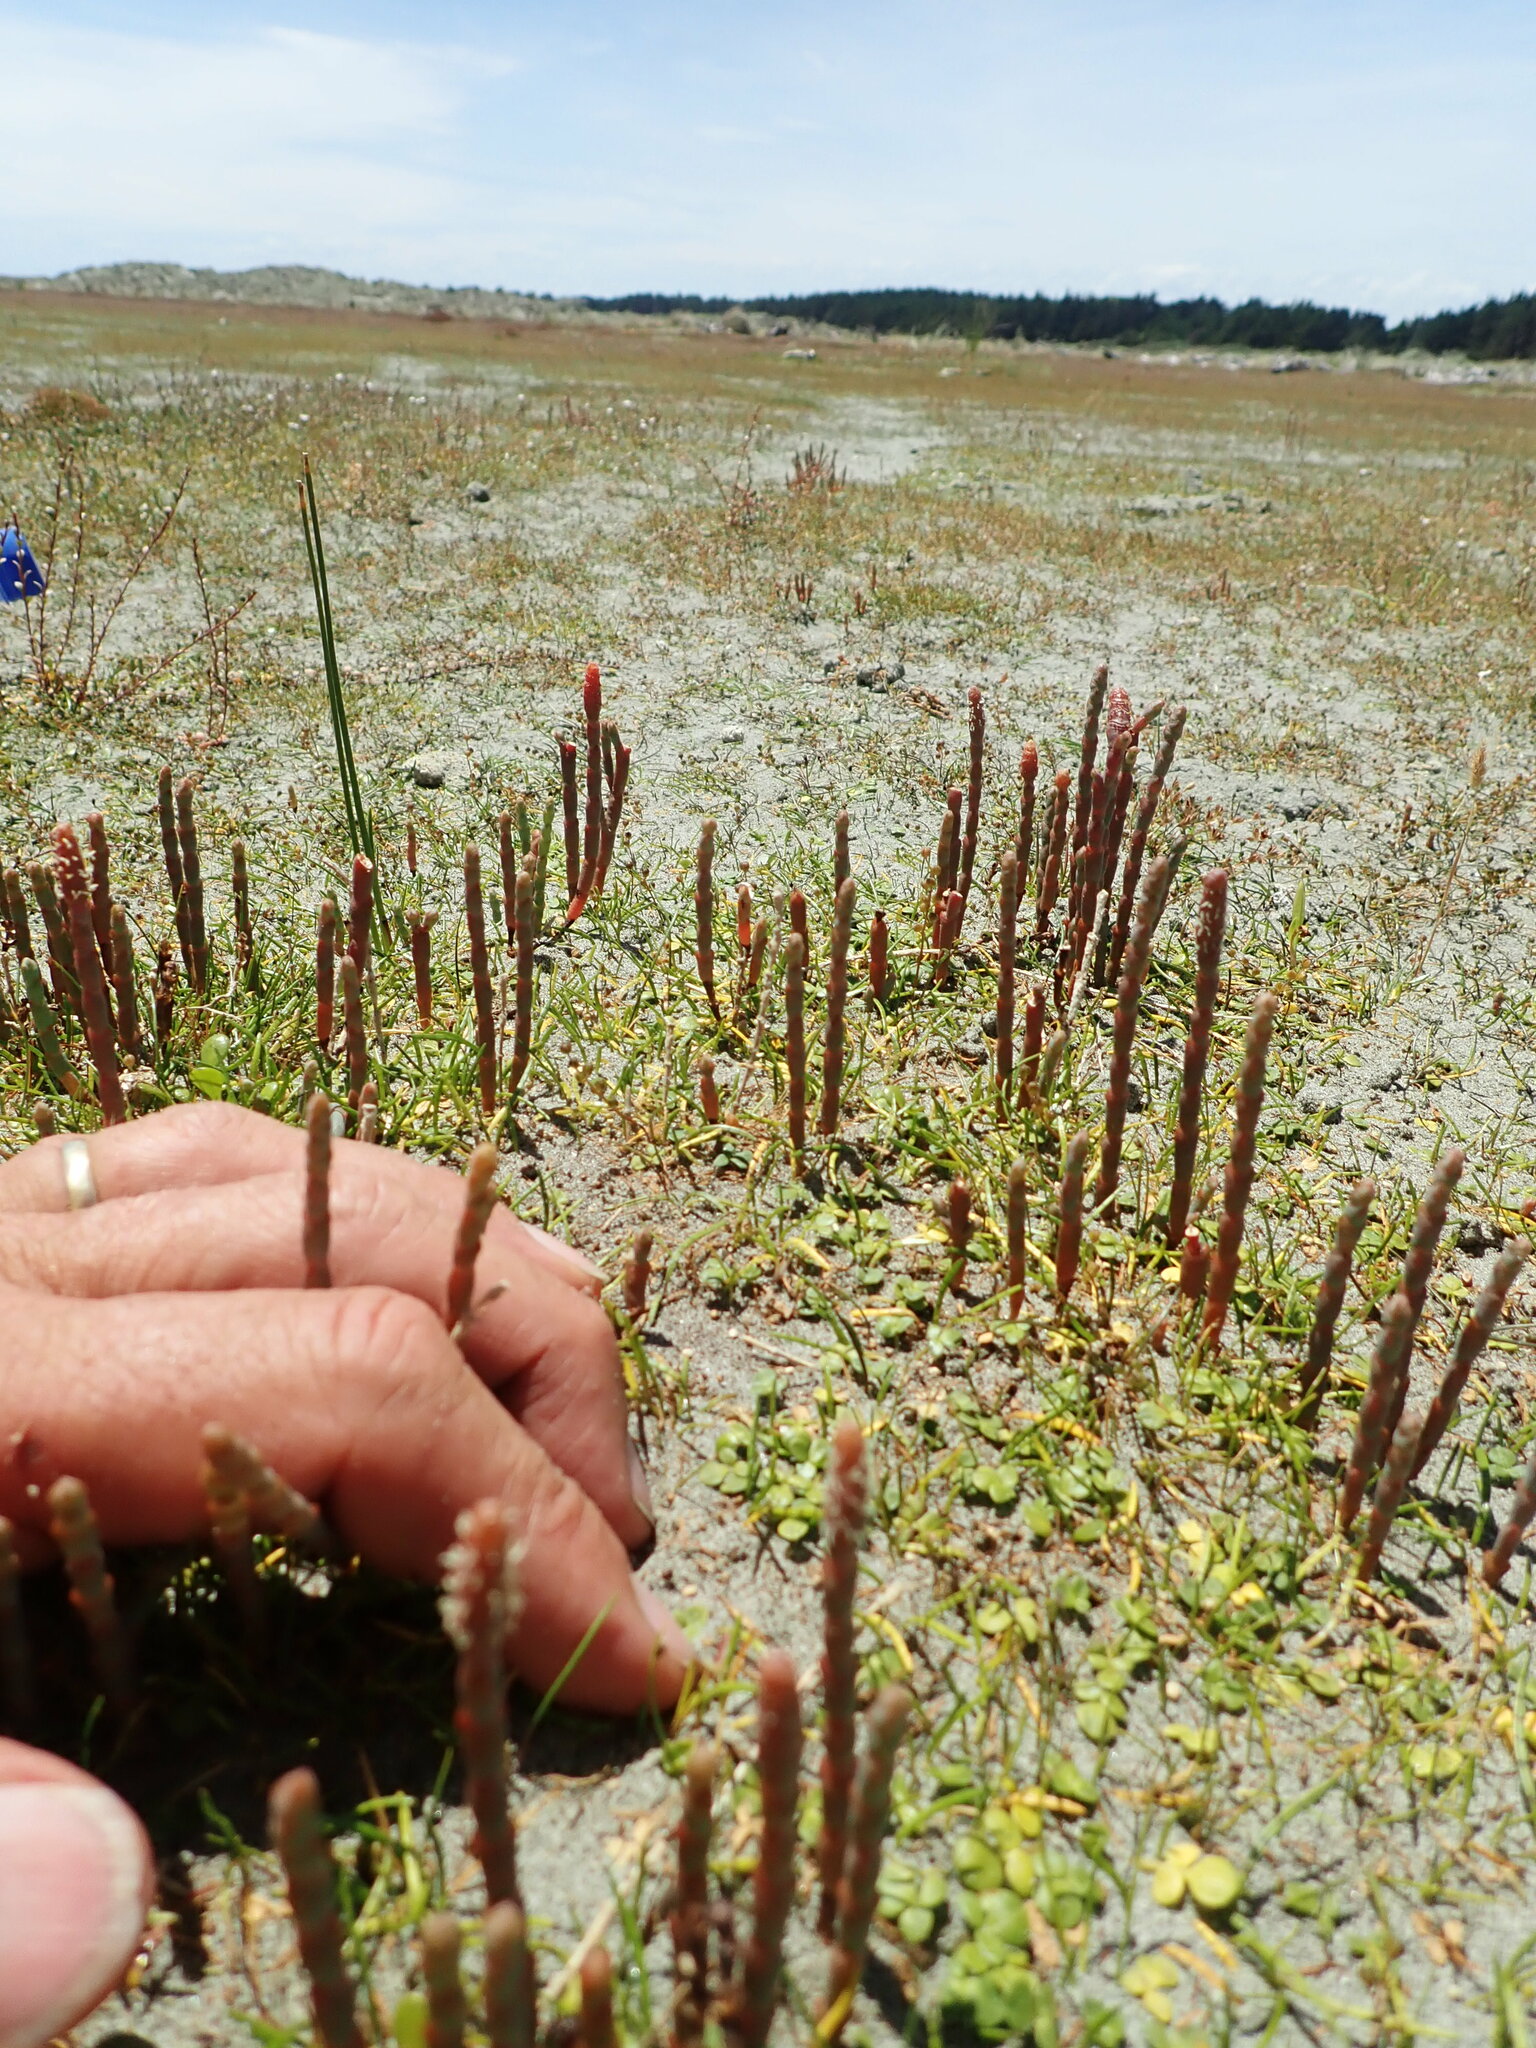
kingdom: Plantae
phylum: Tracheophyta
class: Magnoliopsida
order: Ranunculales
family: Ranunculaceae
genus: Ranunculus
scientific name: Ranunculus acaulis
